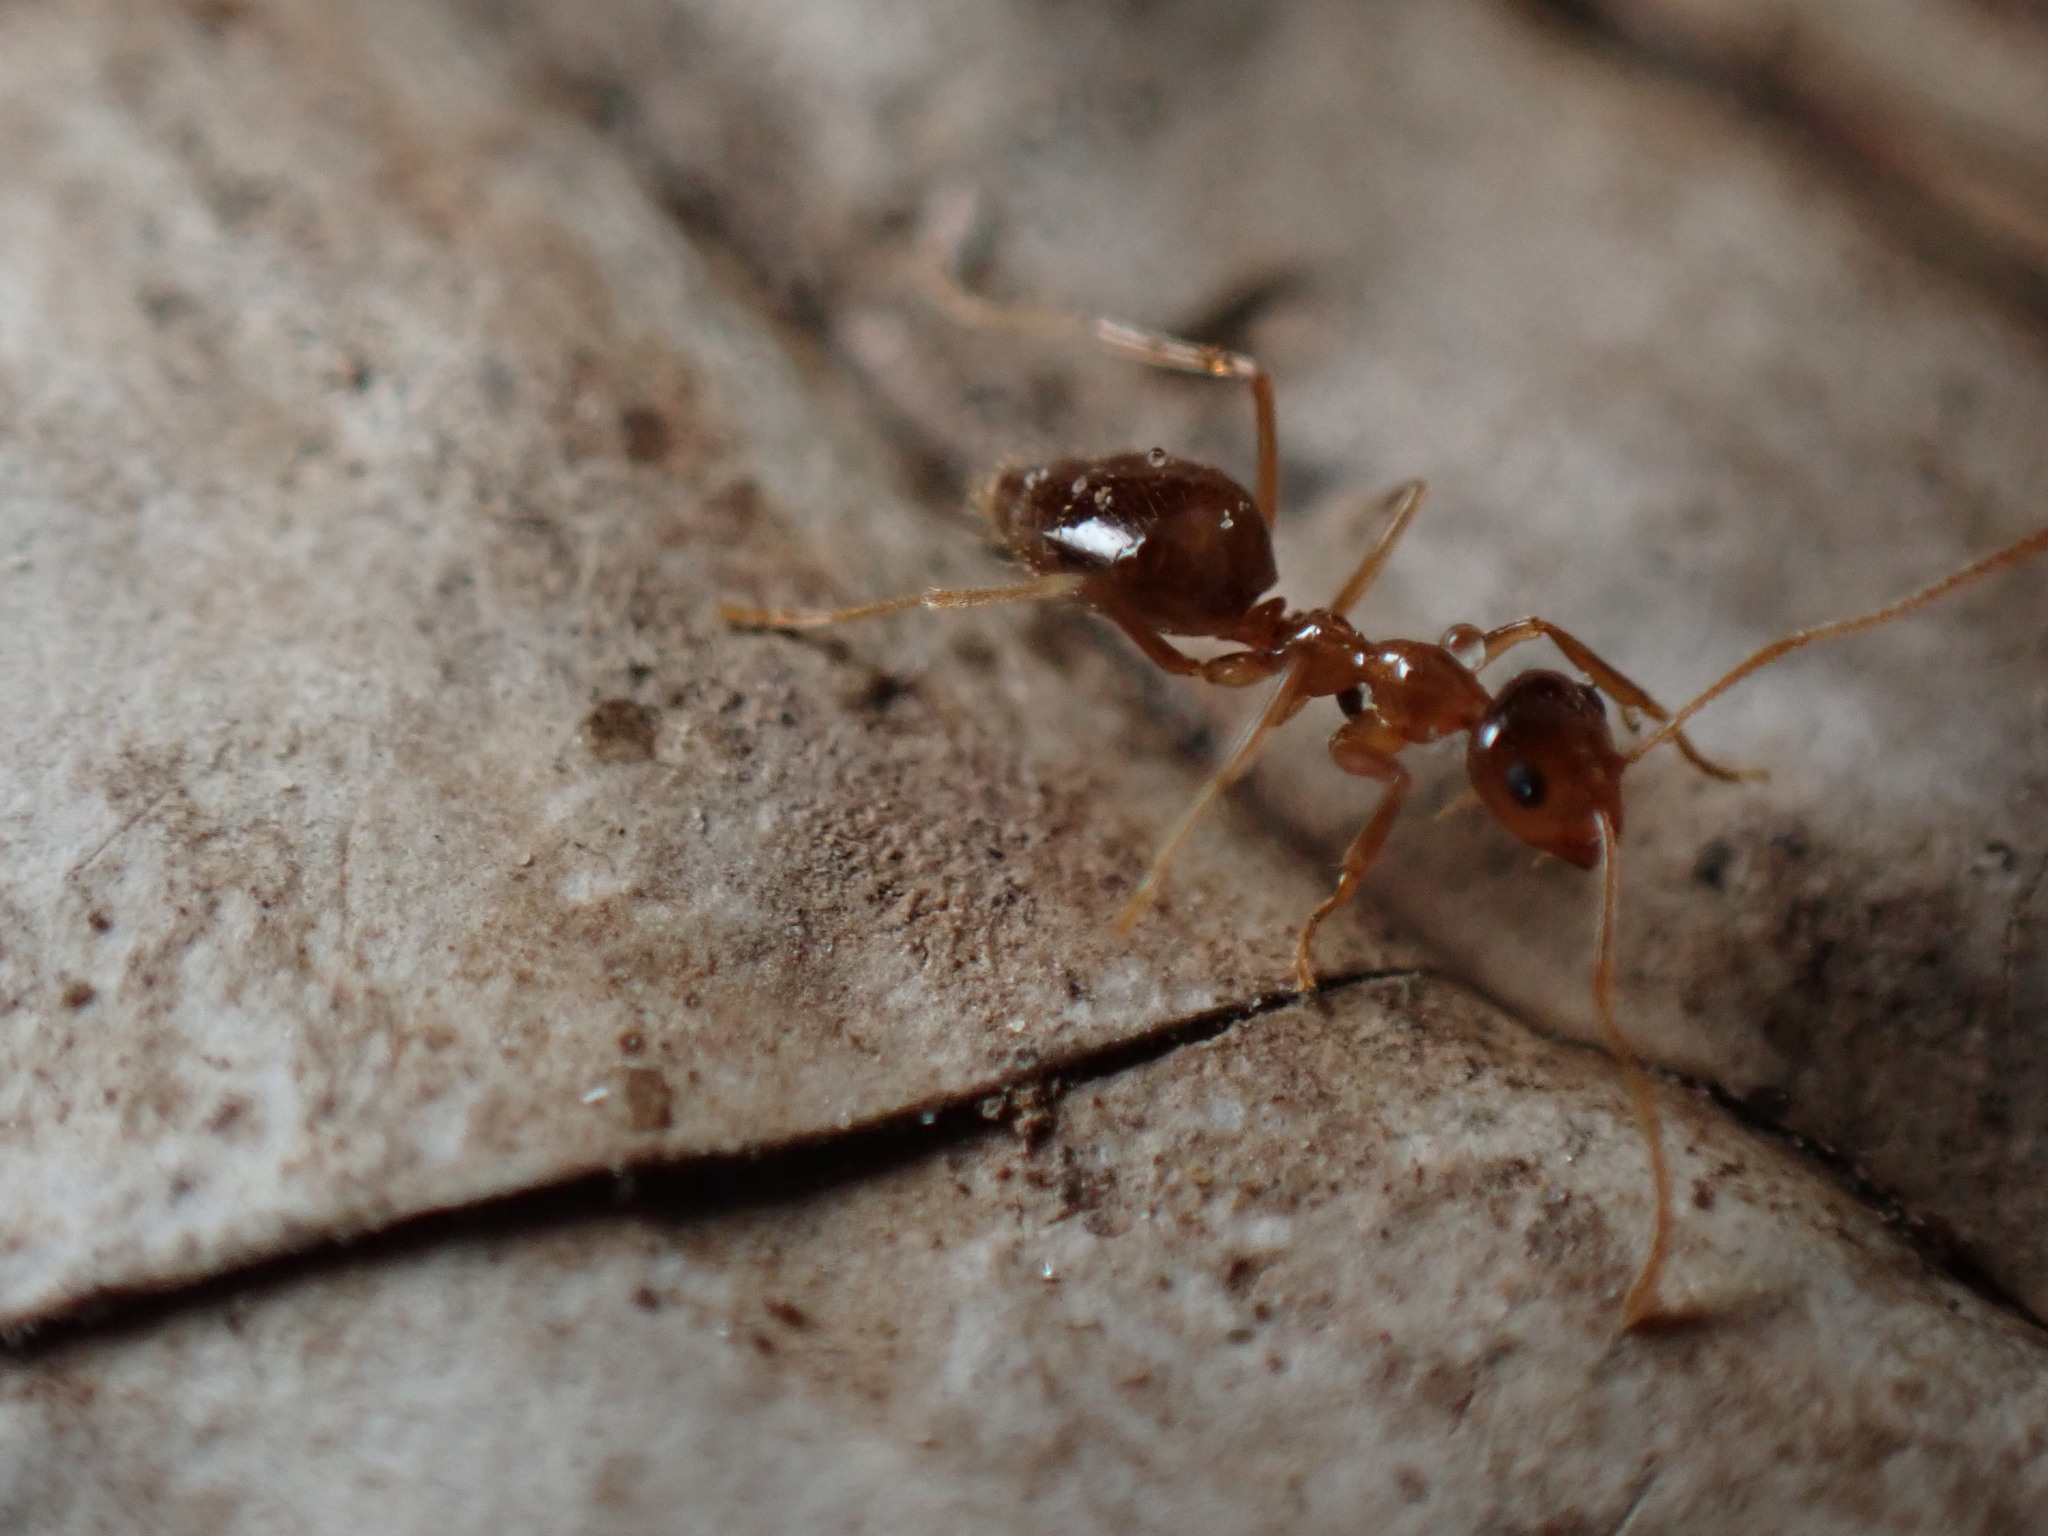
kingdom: Animalia
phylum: Arthropoda
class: Insecta
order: Hymenoptera
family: Formicidae
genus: Prenolepis
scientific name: Prenolepis imparis
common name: Small honey ant
